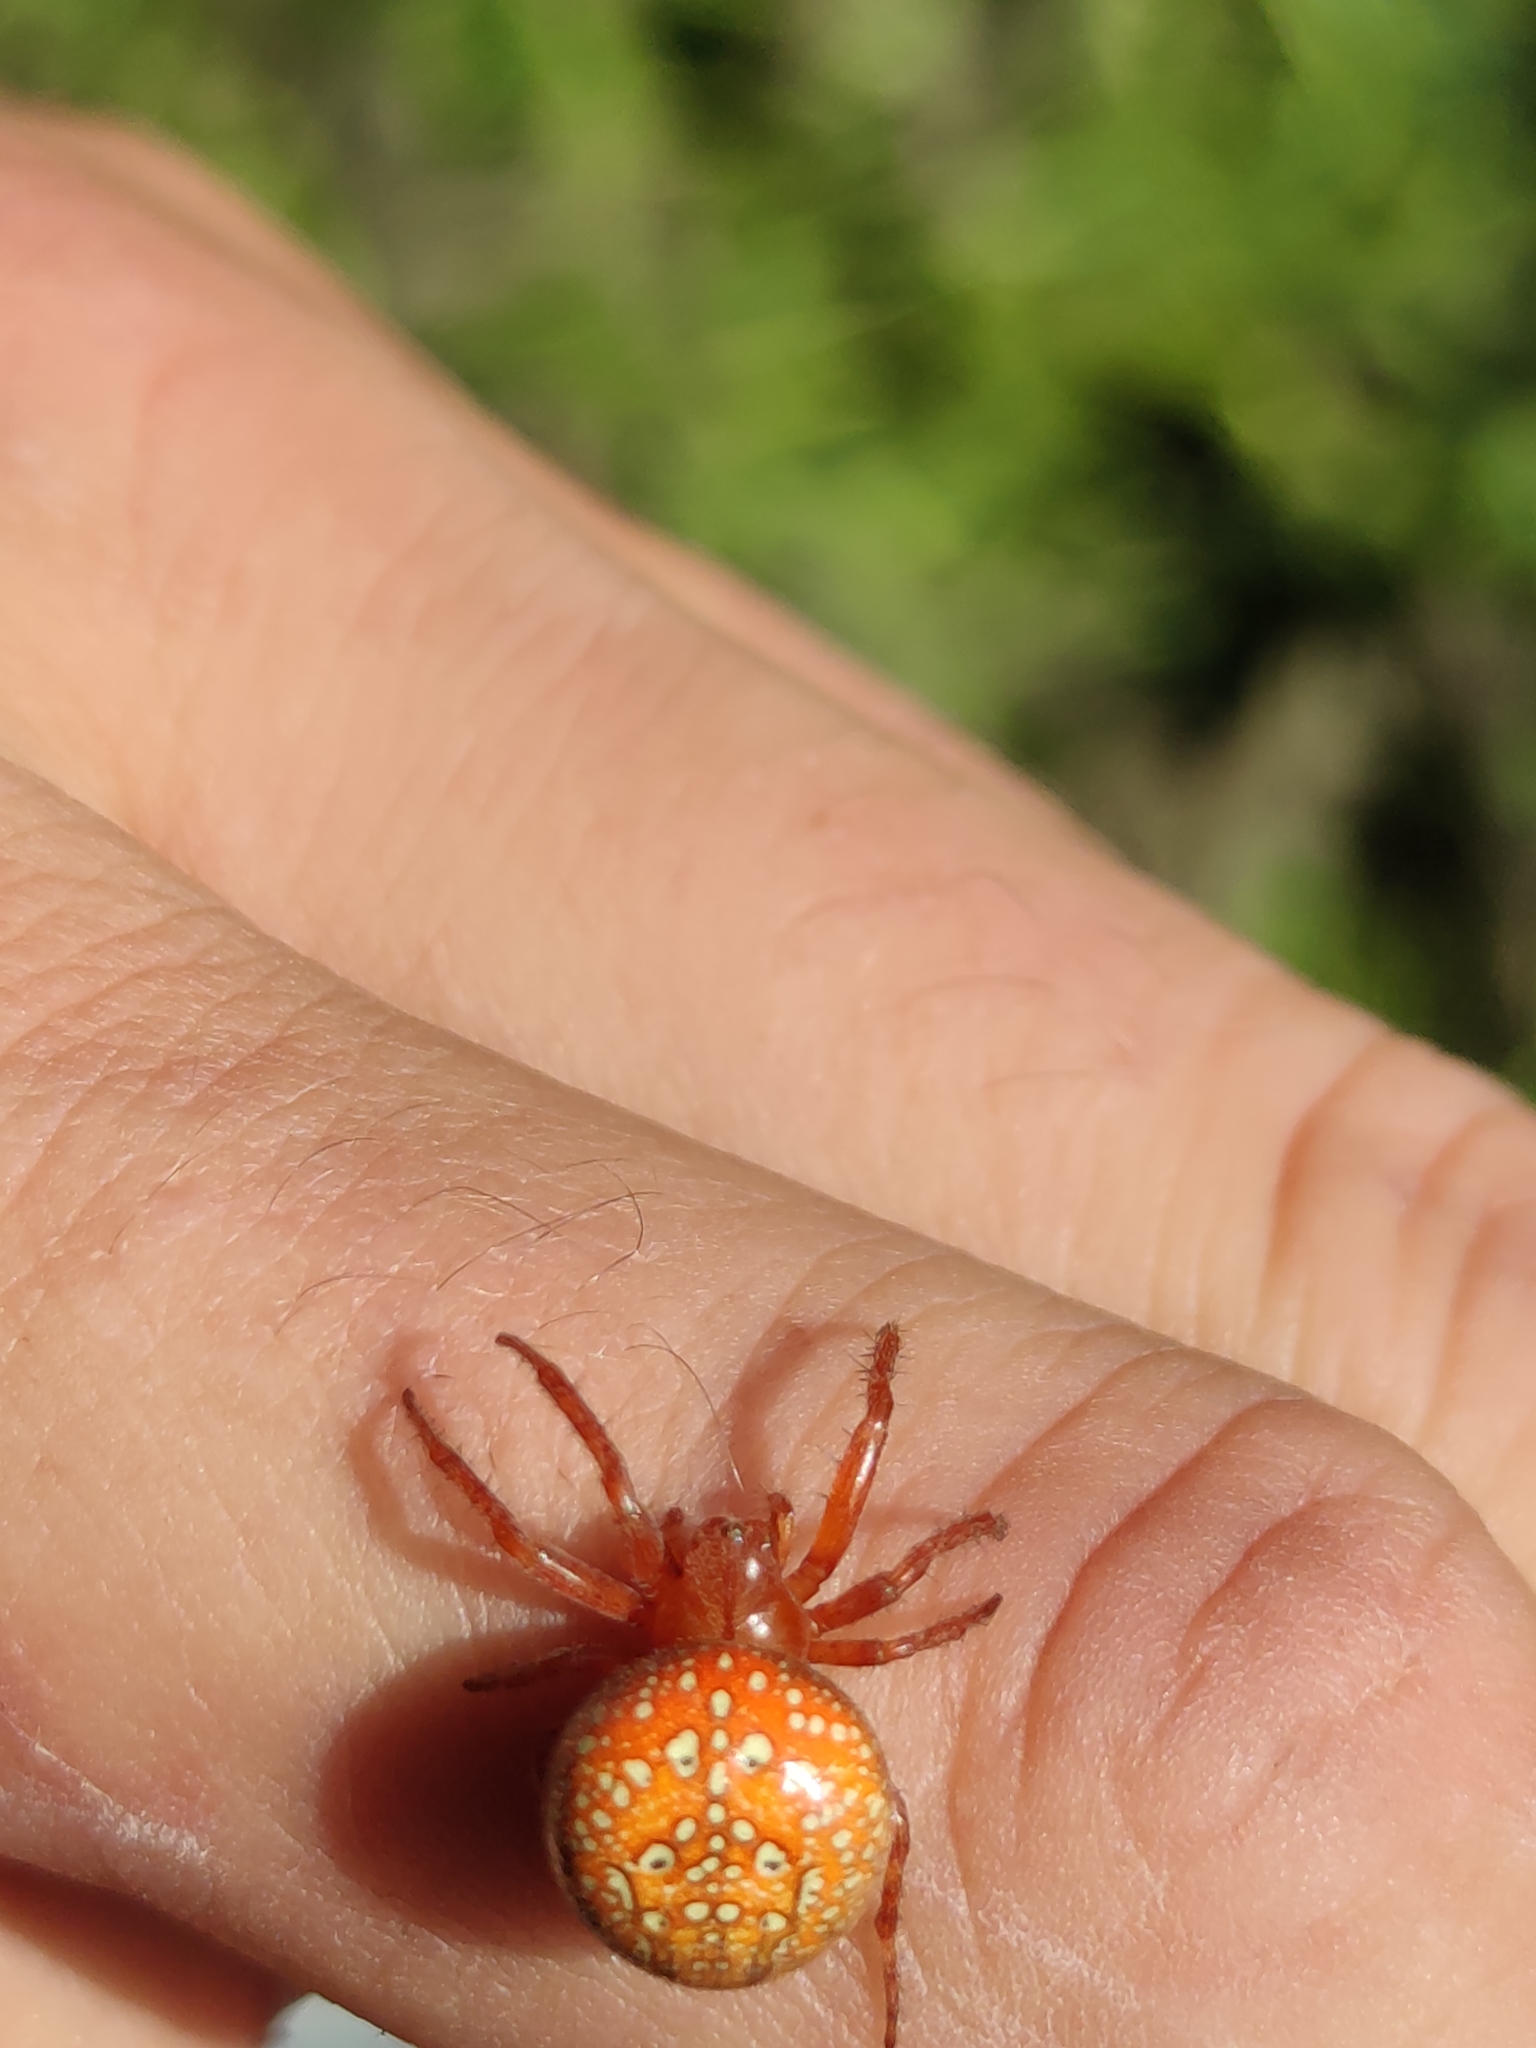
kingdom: Animalia
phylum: Arthropoda
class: Arachnida
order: Araneae
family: Araneidae
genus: Araneus
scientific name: Araneus alsine
